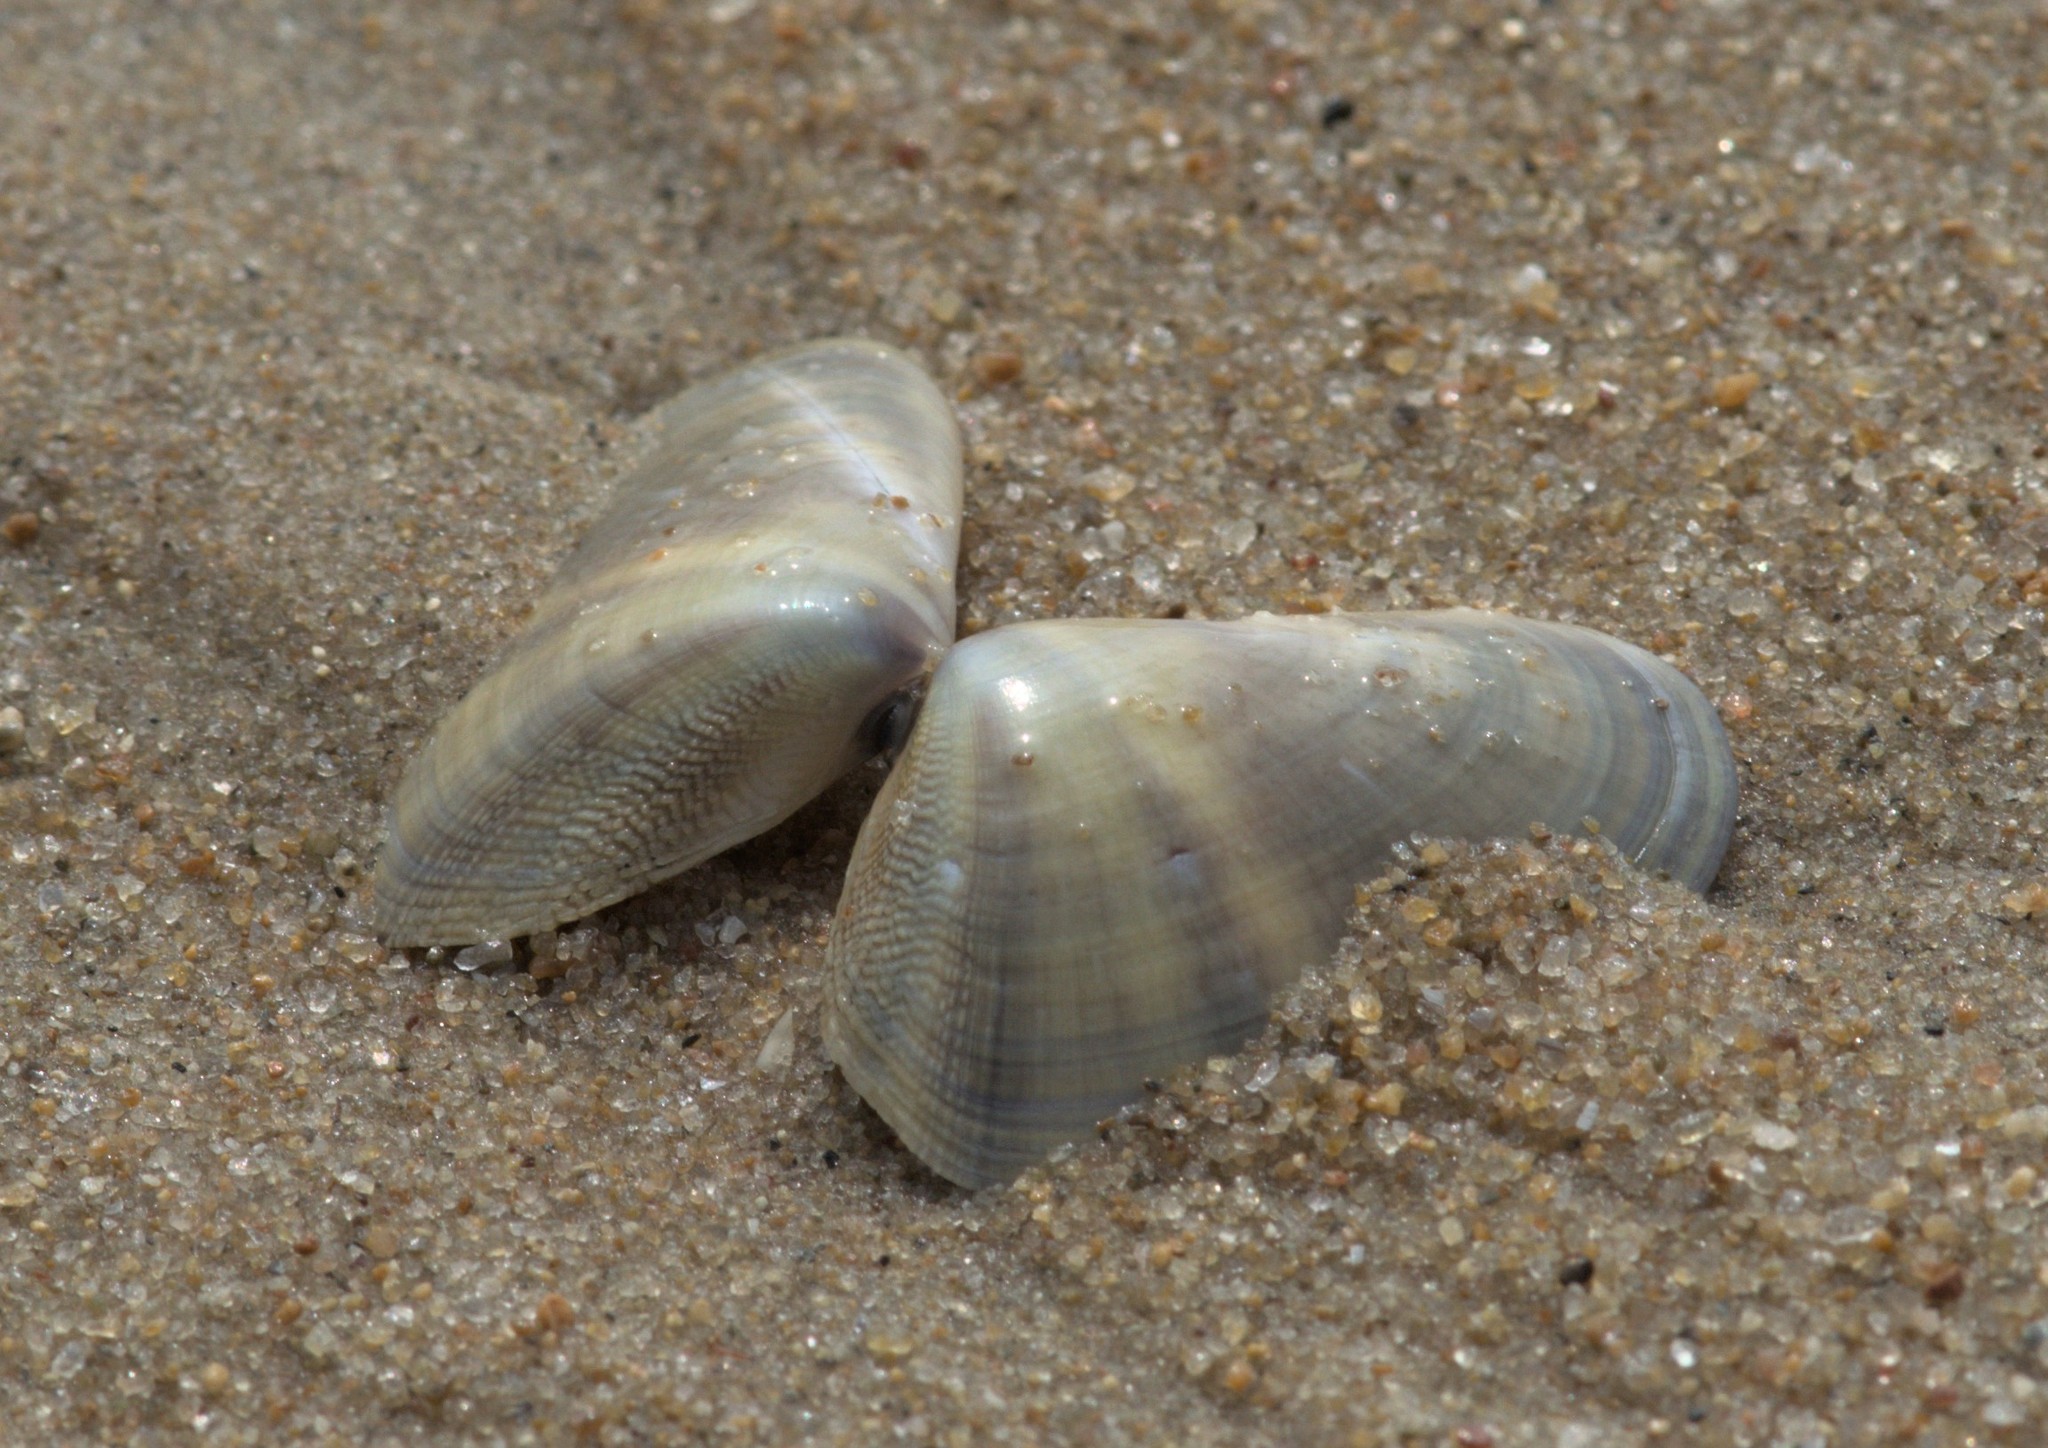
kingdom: Animalia
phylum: Mollusca
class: Bivalvia
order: Cardiida
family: Donacidae
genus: Latona
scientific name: Latona cuneata
